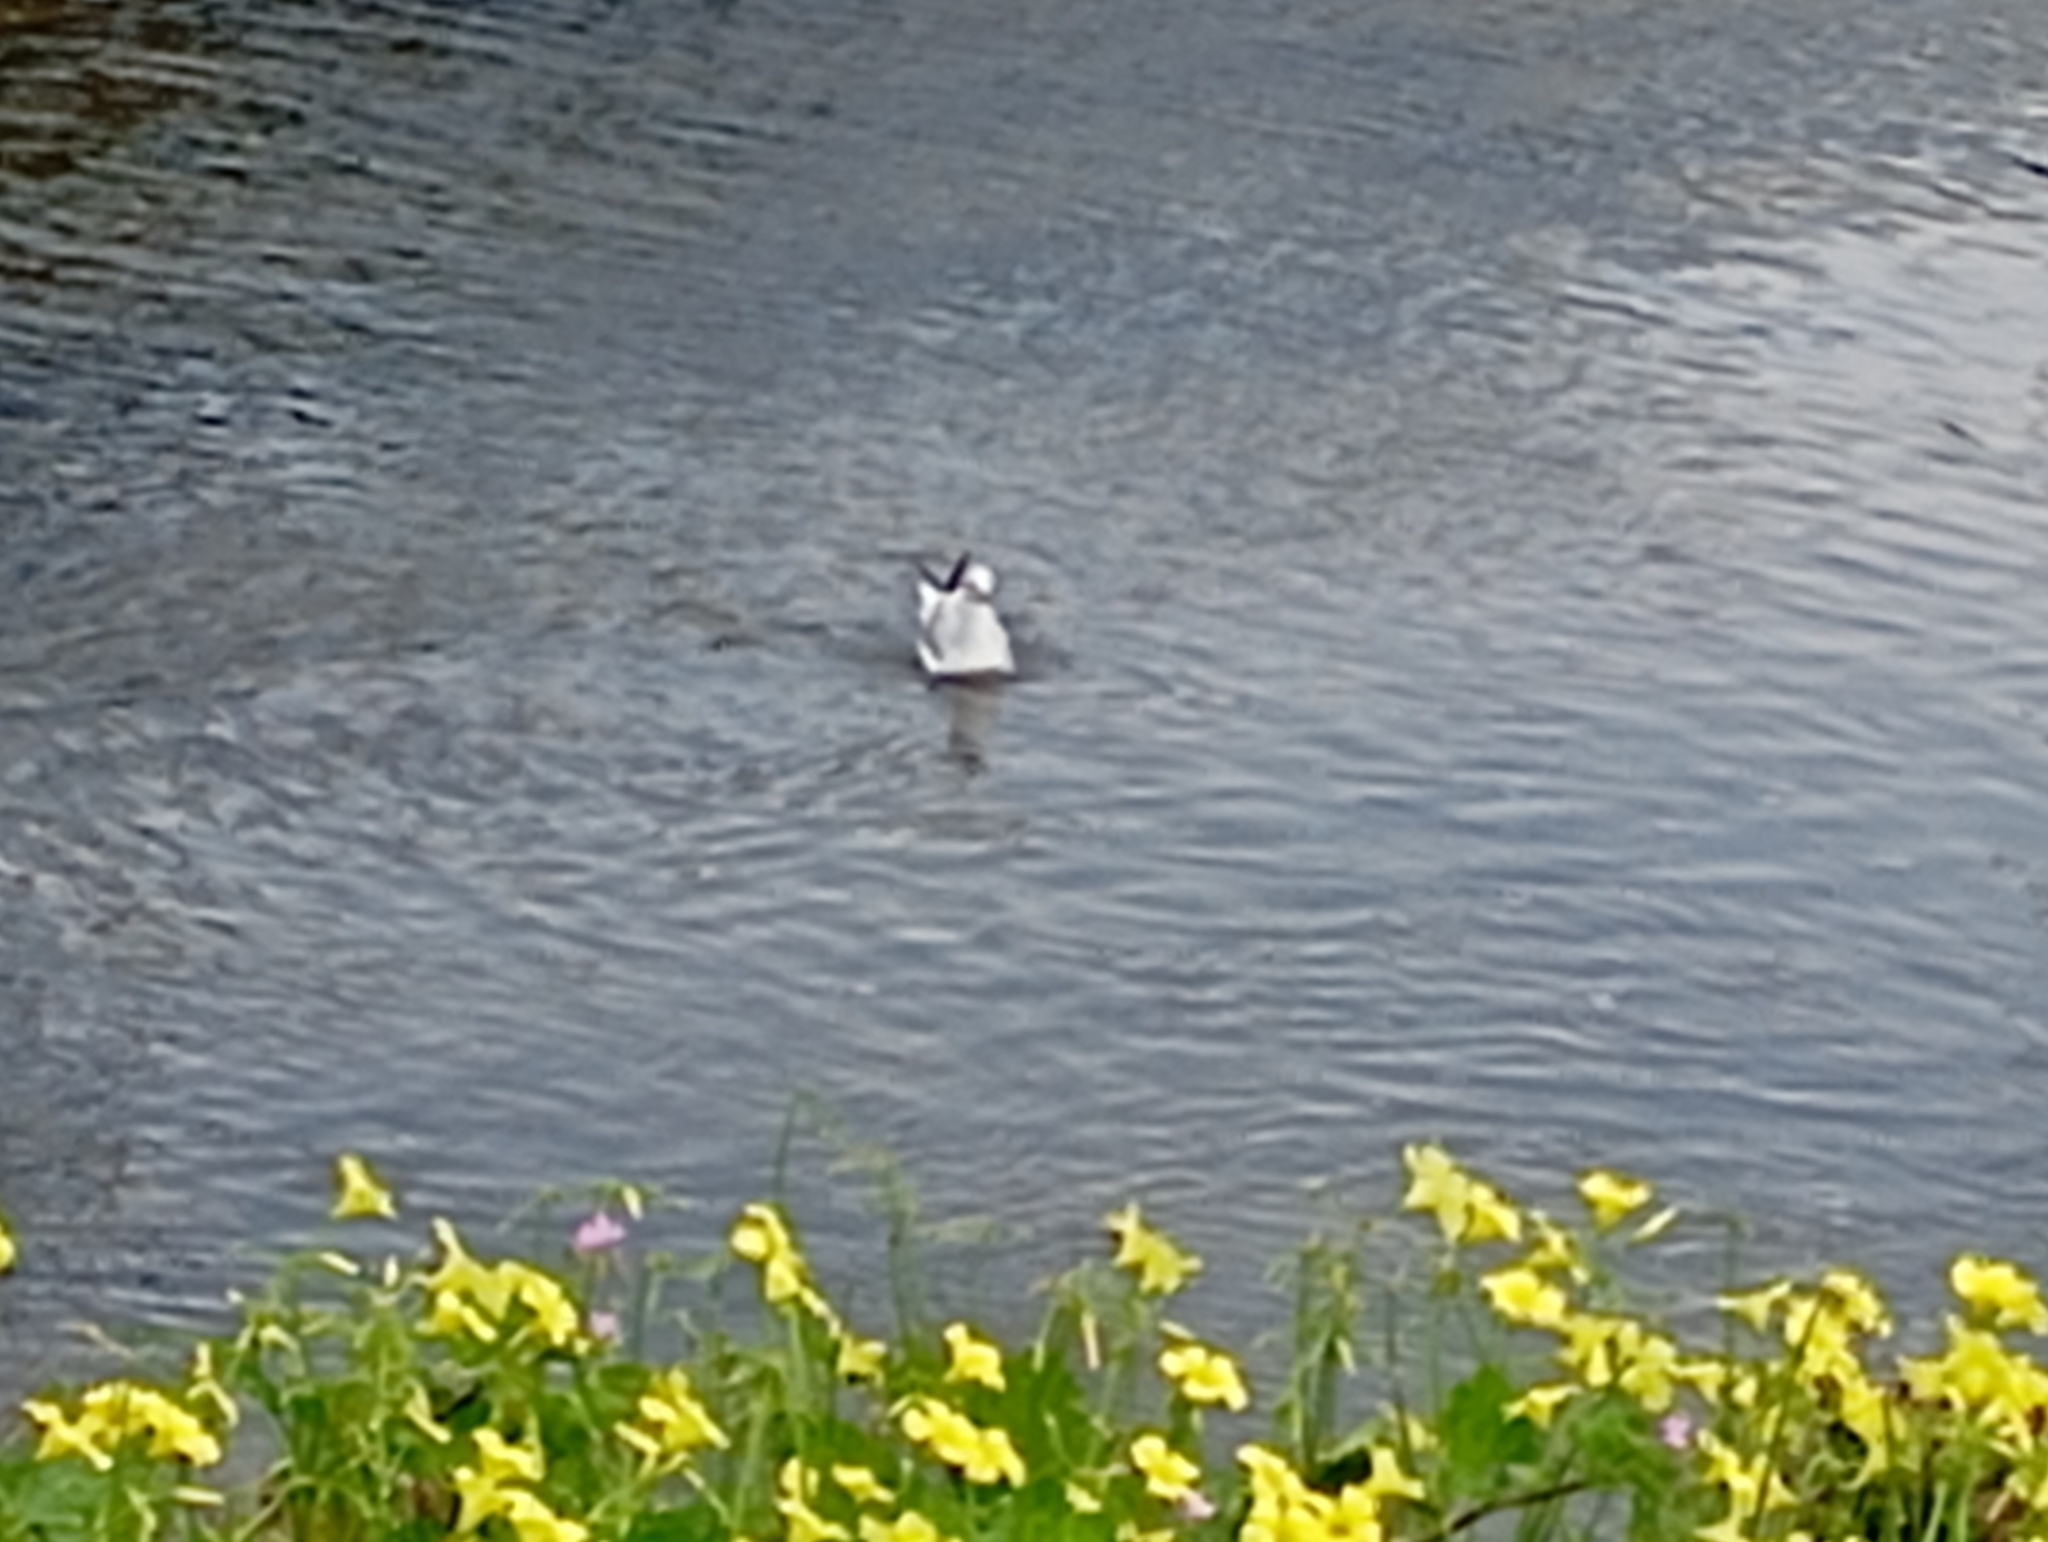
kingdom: Animalia
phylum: Chordata
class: Aves
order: Charadriiformes
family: Laridae
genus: Chroicocephalus
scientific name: Chroicocephalus ridibundus
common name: Black-headed gull
